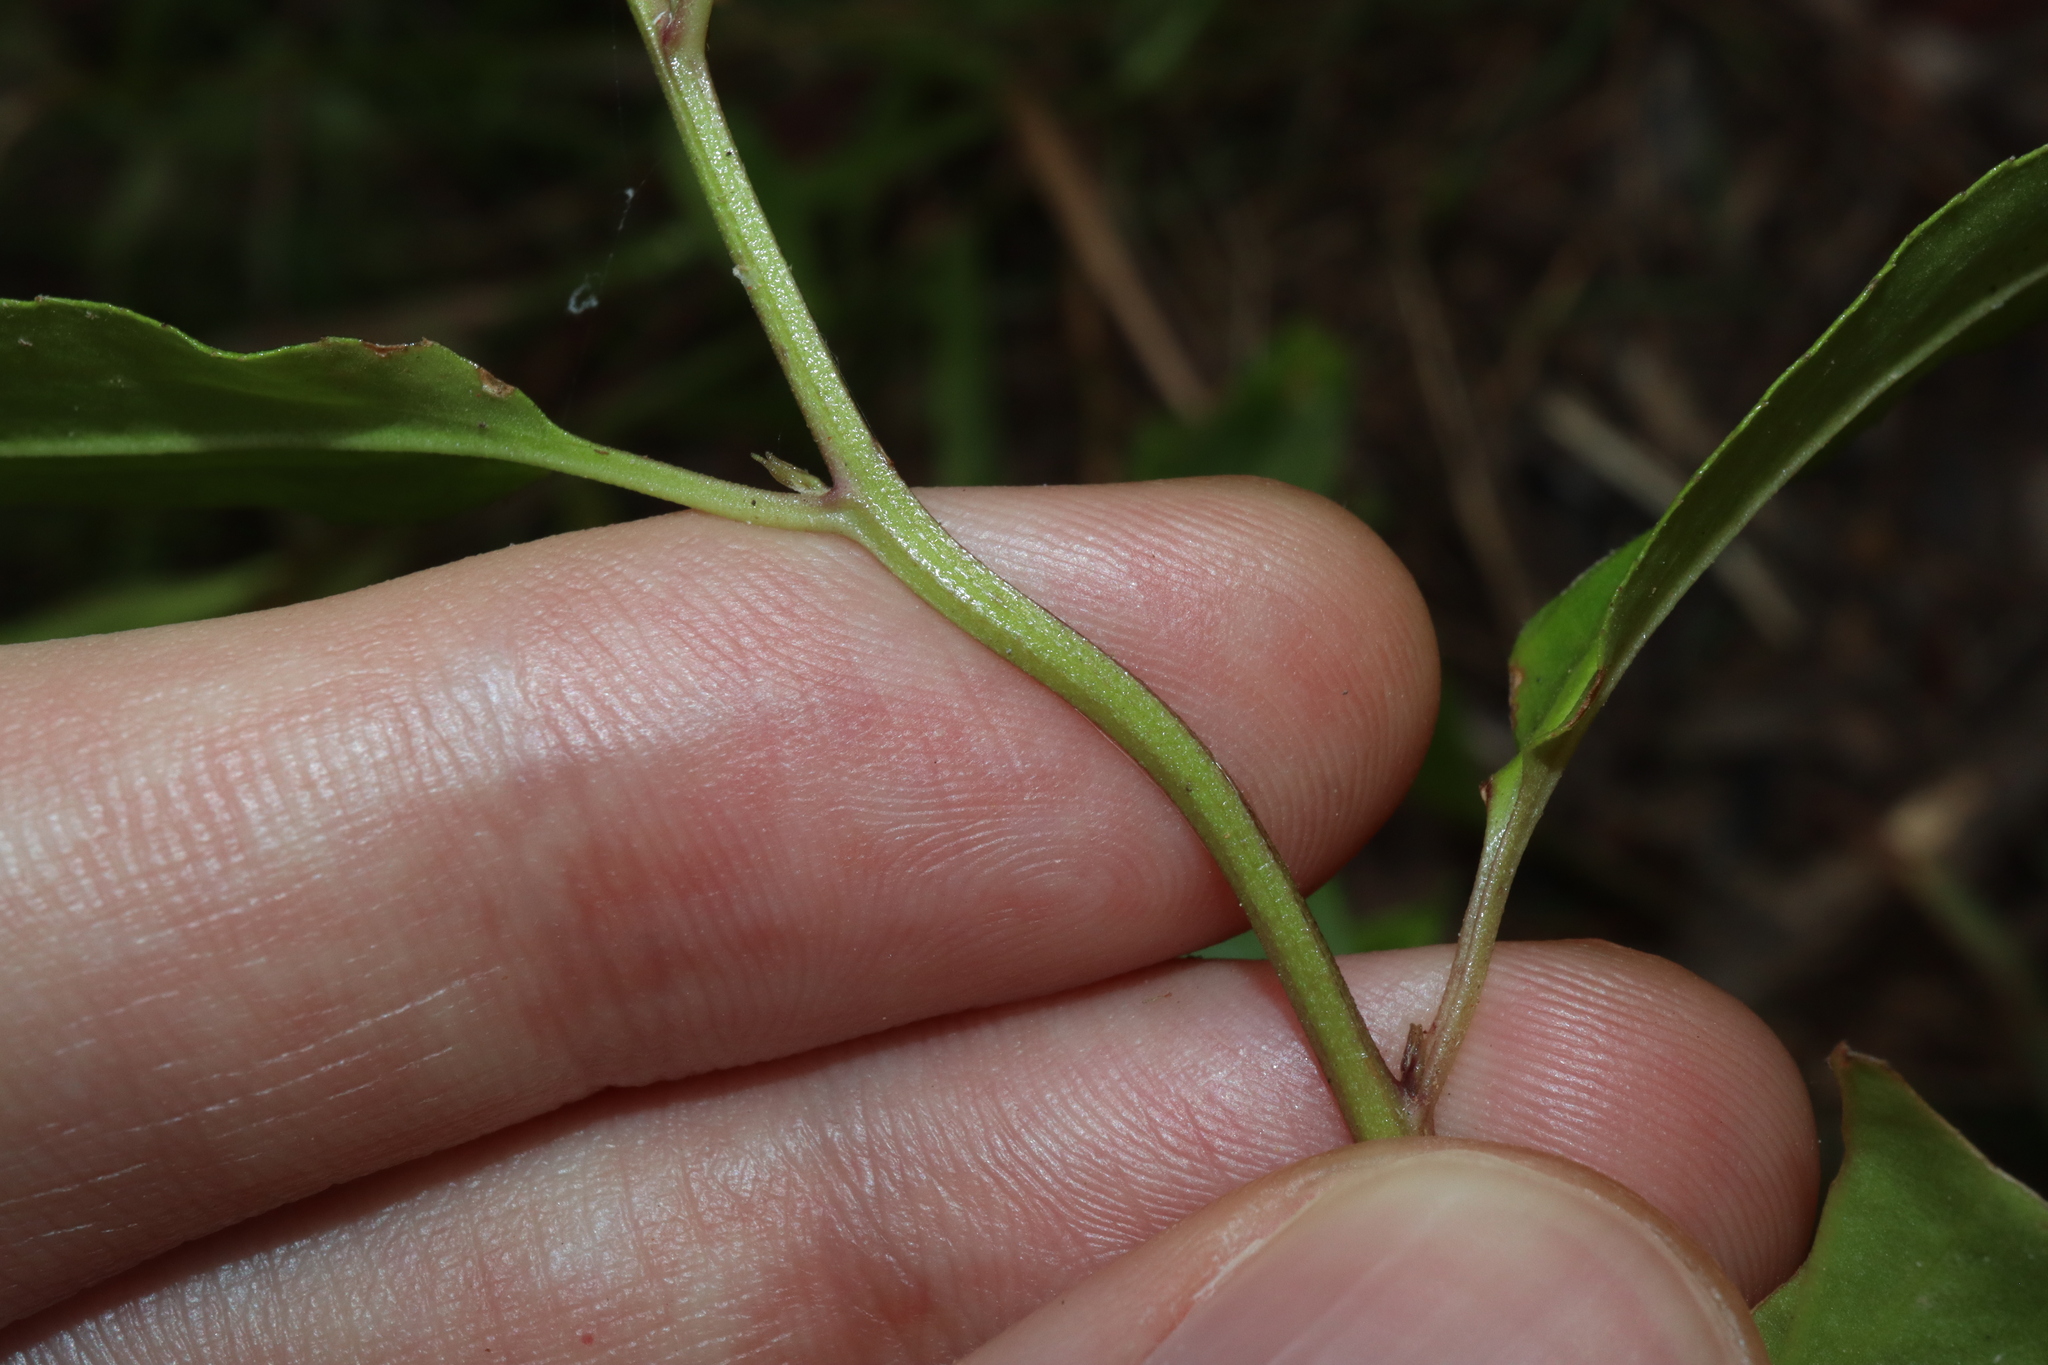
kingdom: Plantae
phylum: Tracheophyta
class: Magnoliopsida
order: Asterales
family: Goodeniaceae
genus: Goodenia
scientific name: Goodenia ovata
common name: Hop goodenia
